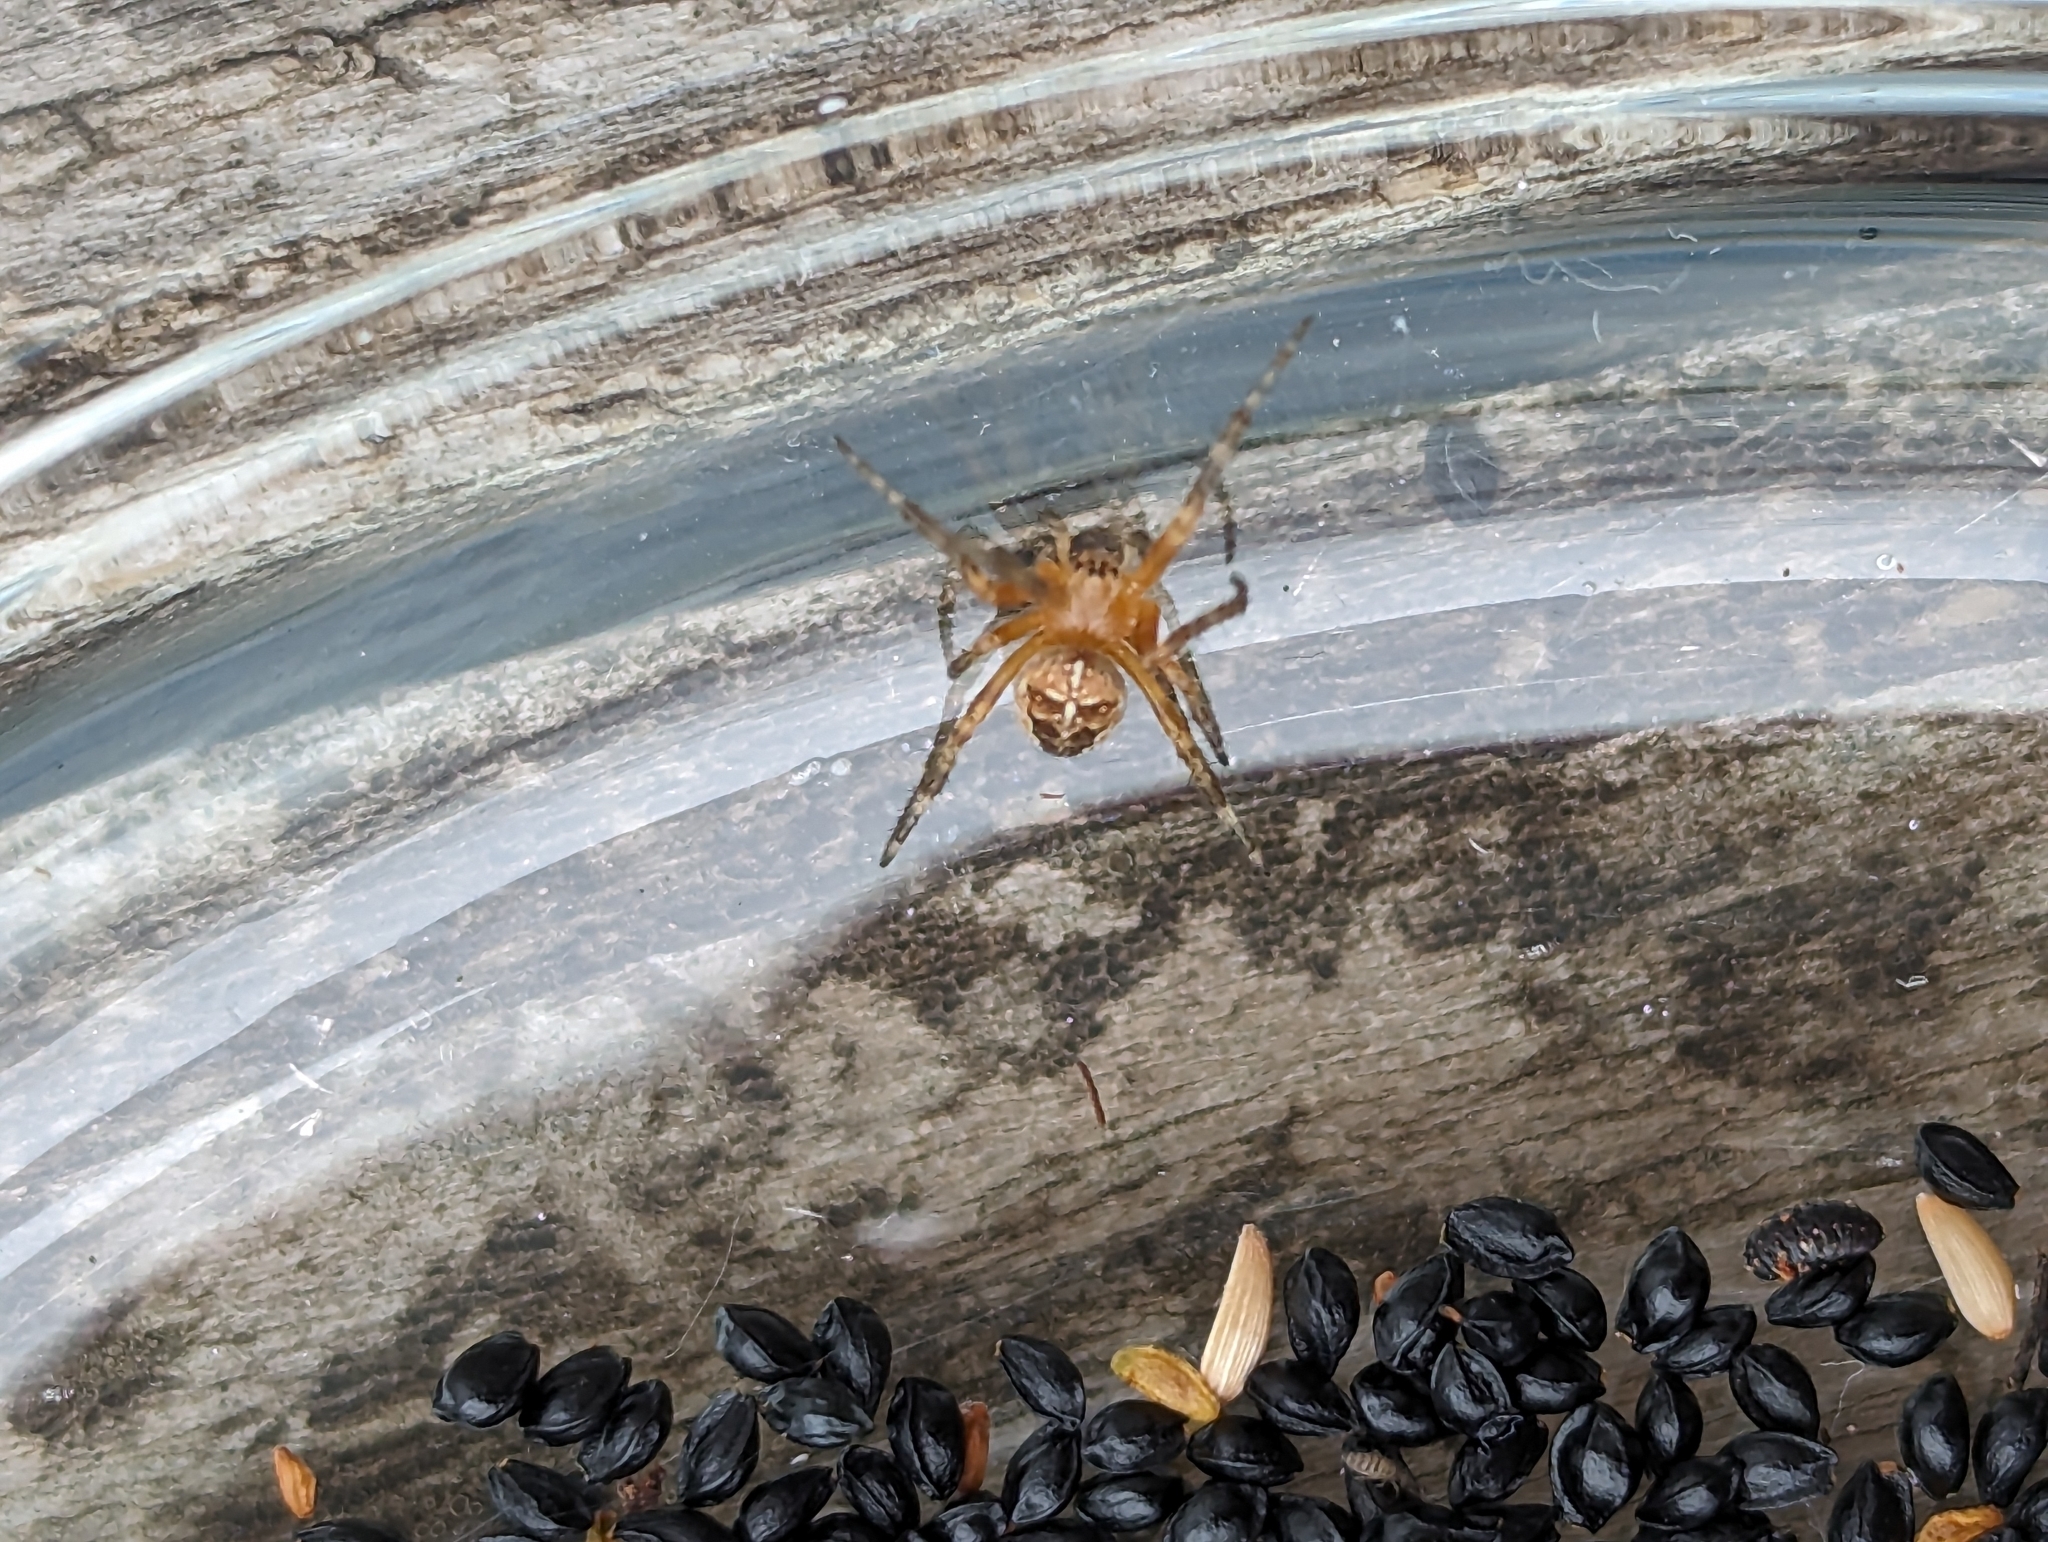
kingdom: Animalia
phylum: Arthropoda
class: Arachnida
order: Araneae
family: Araneidae
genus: Araneus
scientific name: Araneus diadematus
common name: Cross orbweaver
